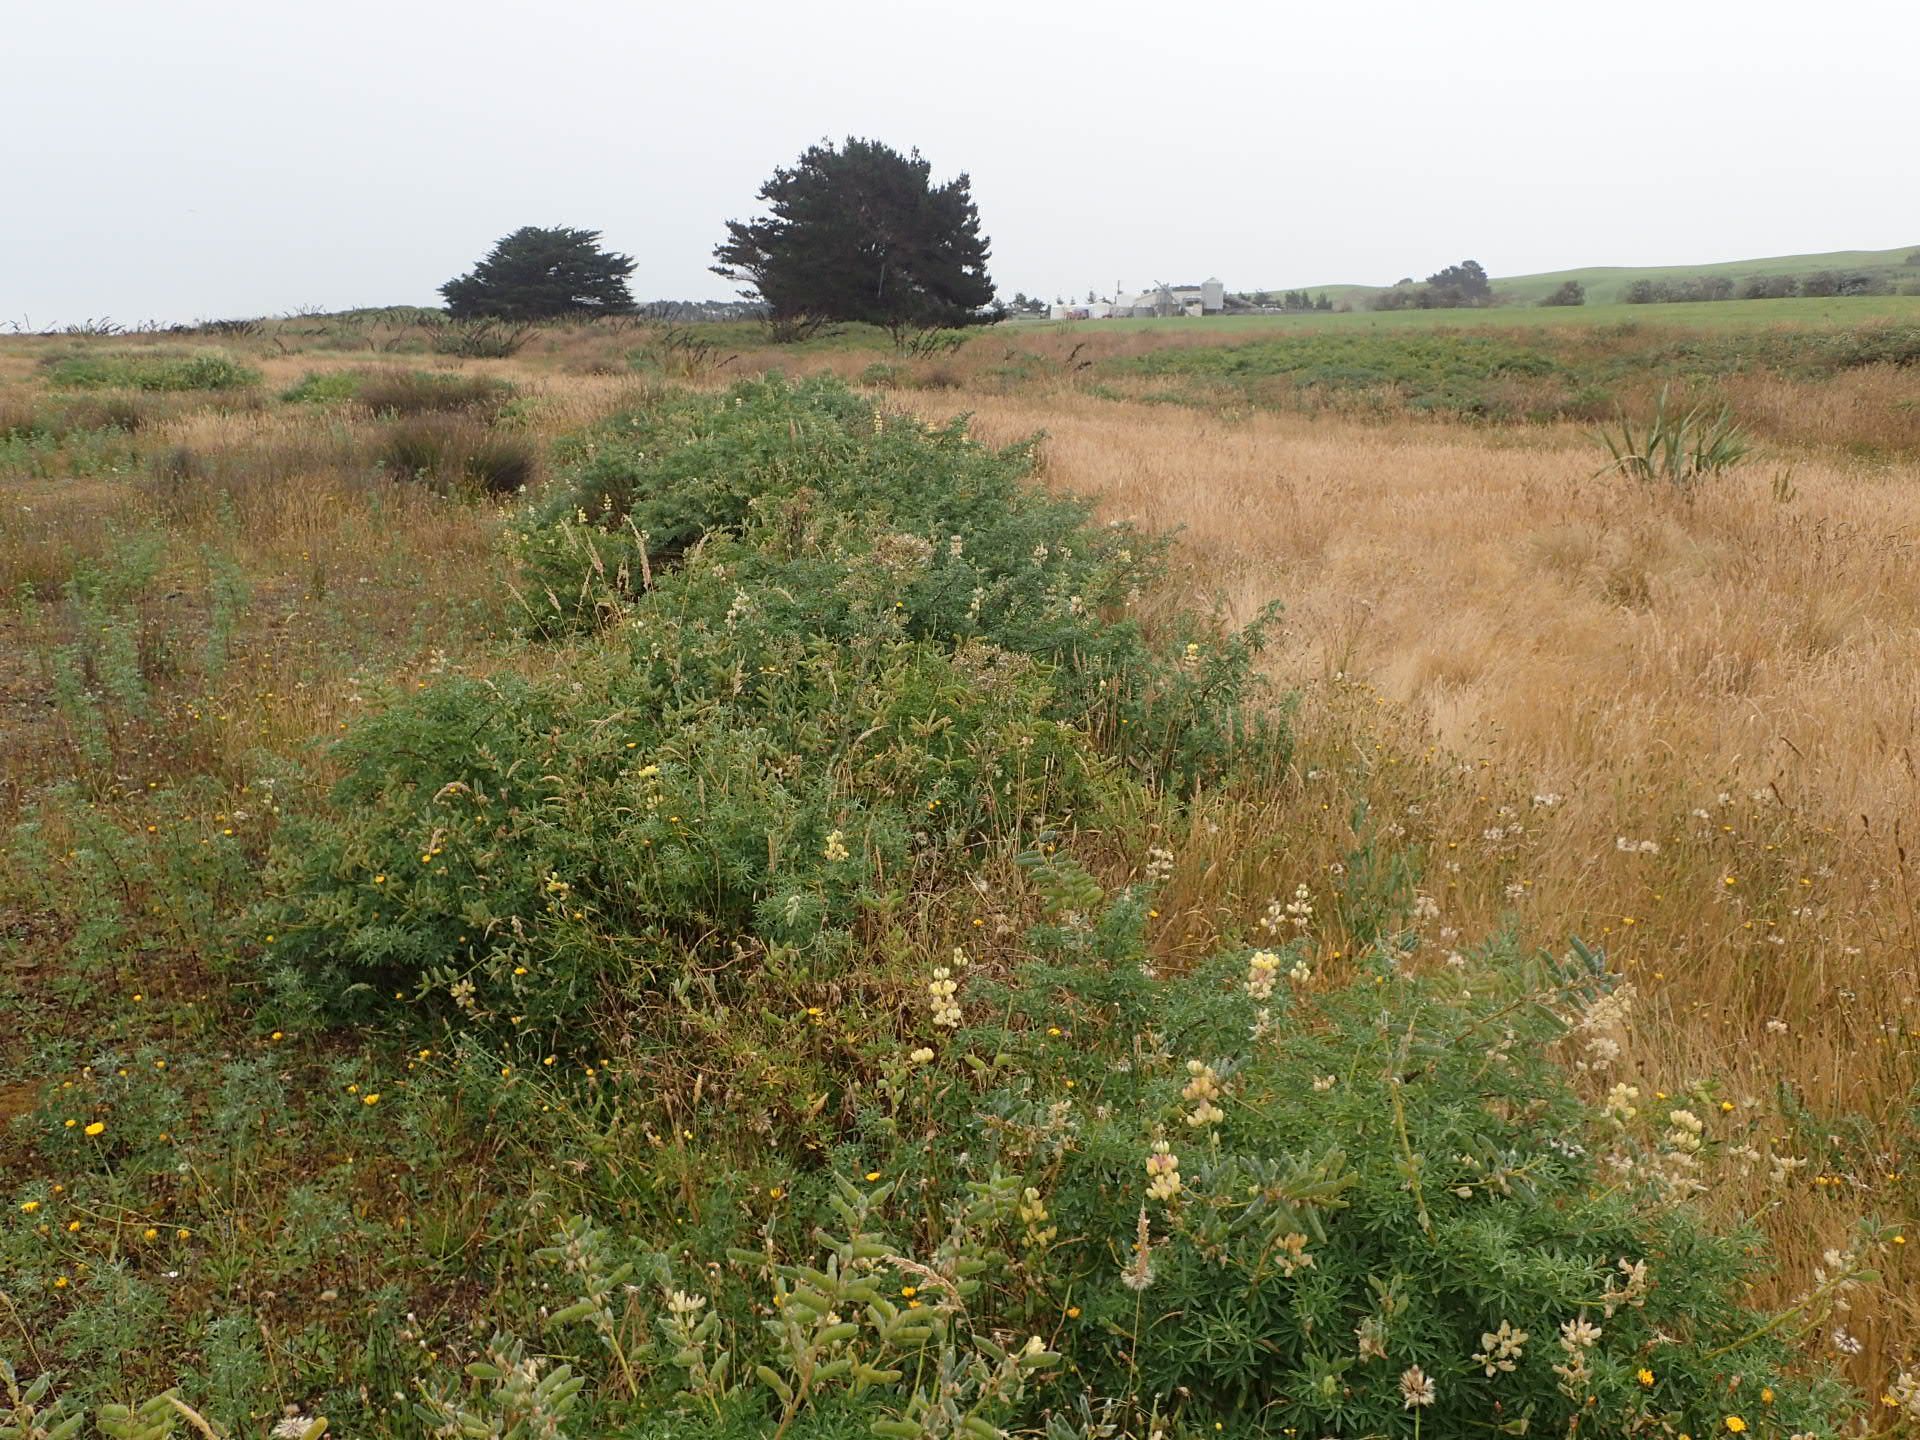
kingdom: Plantae
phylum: Tracheophyta
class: Magnoliopsida
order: Fabales
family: Fabaceae
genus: Lupinus
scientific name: Lupinus arboreus
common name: Yellow bush lupine
